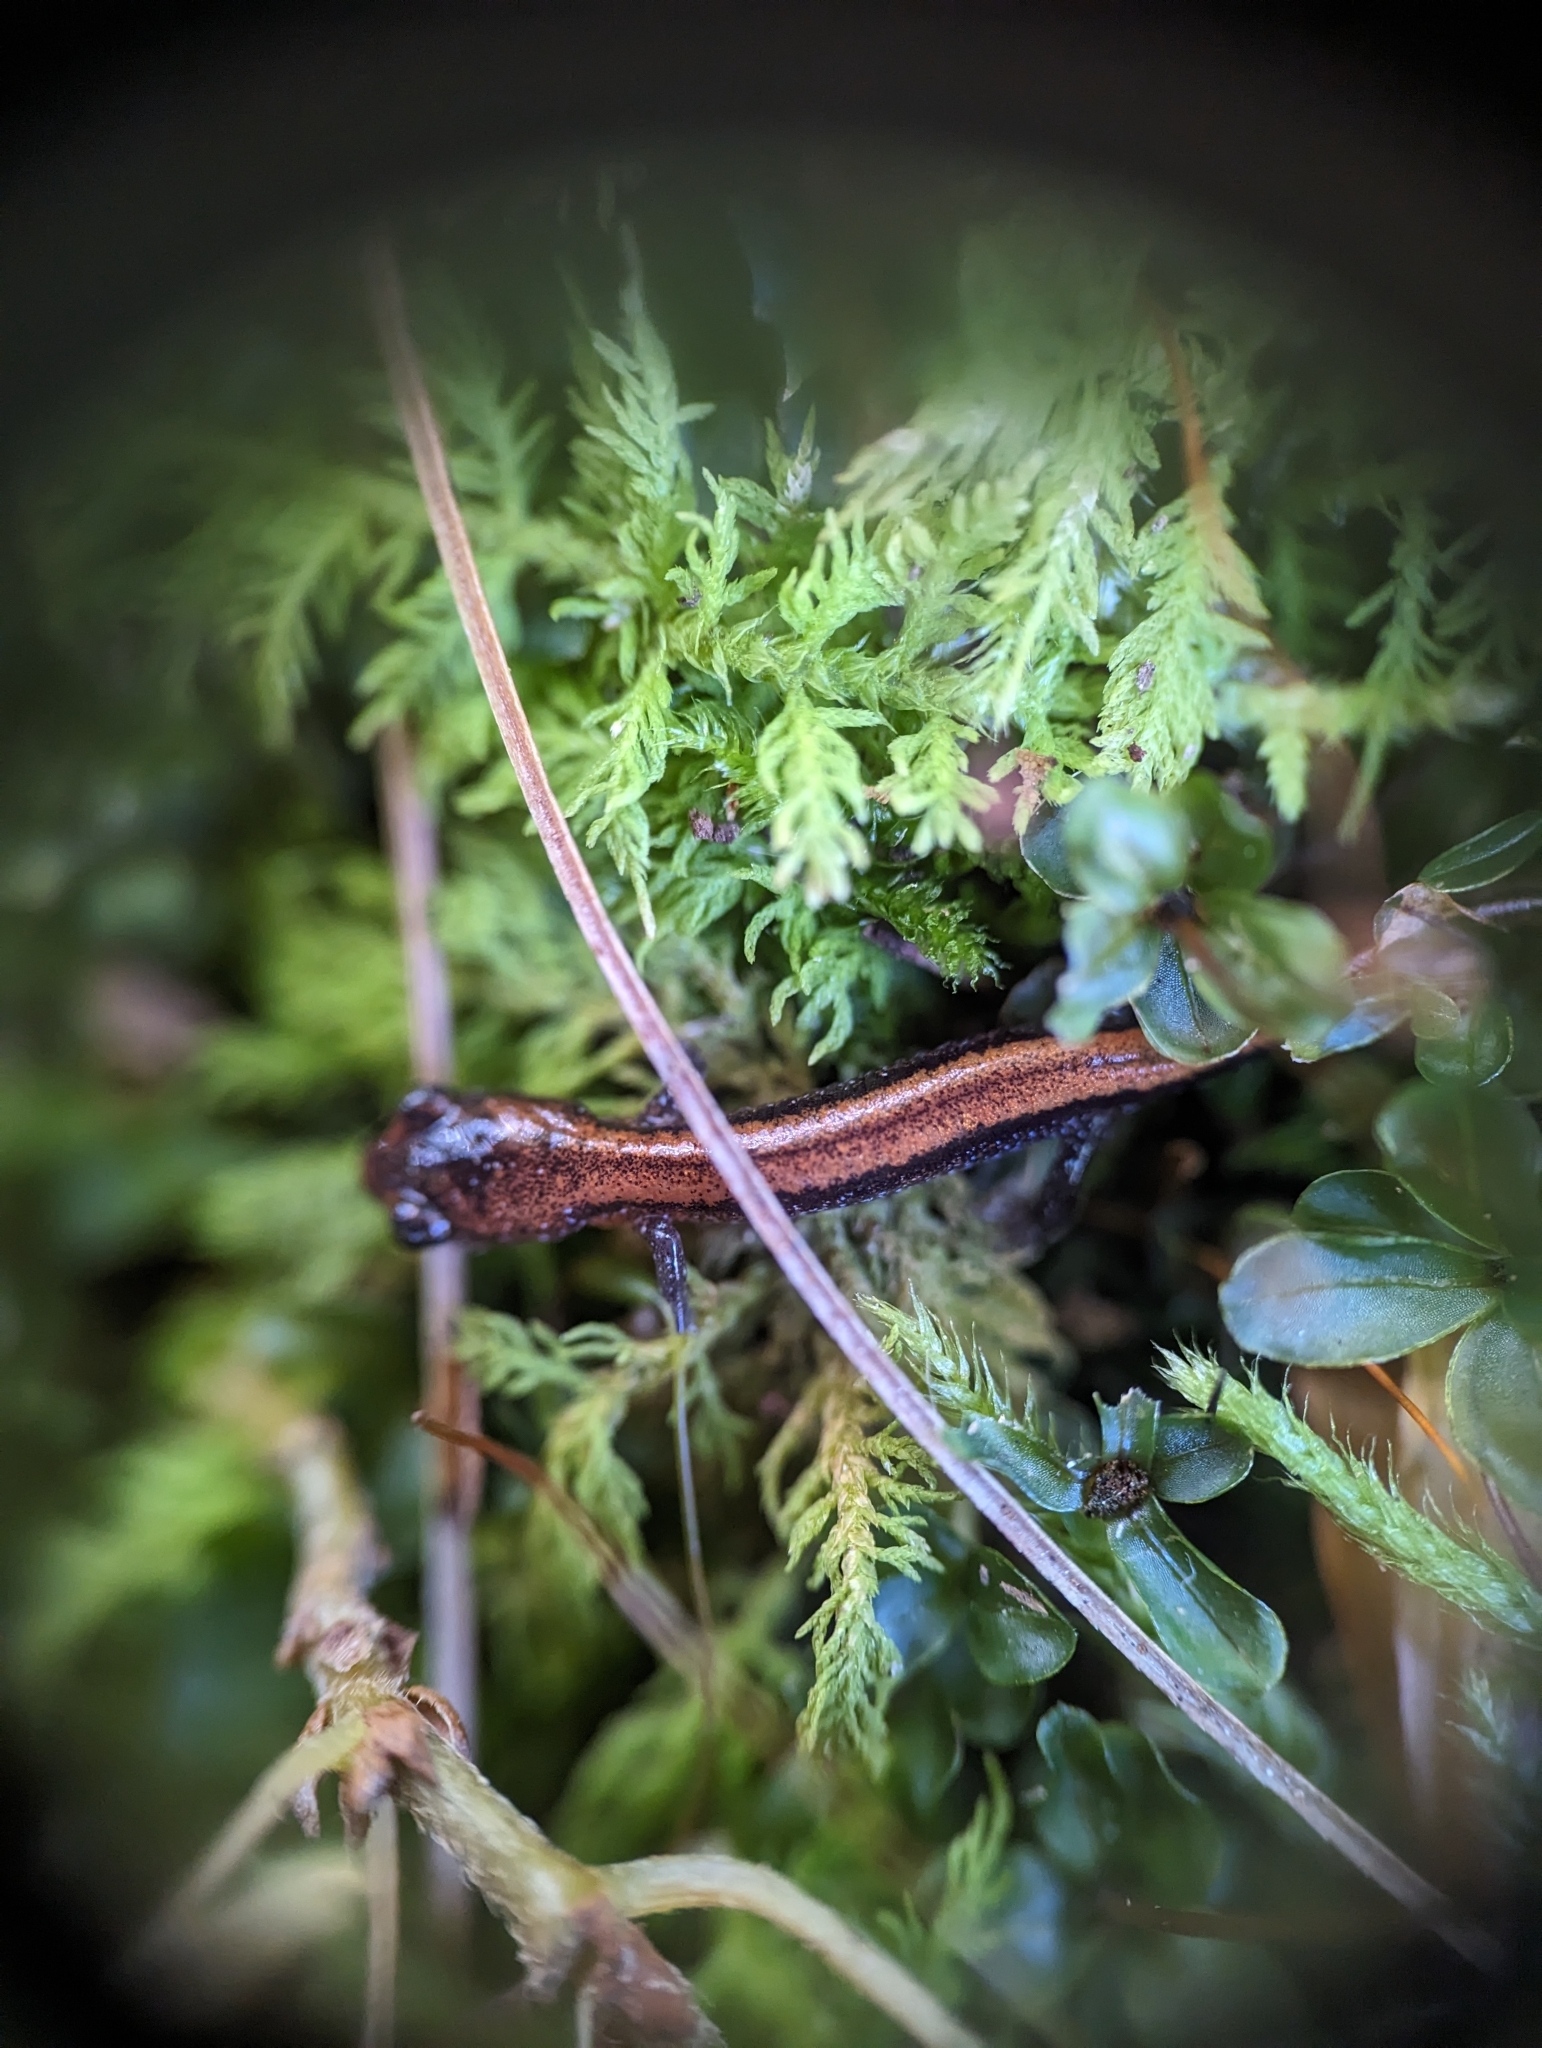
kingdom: Animalia
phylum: Chordata
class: Amphibia
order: Caudata
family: Plethodontidae
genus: Plethodon
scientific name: Plethodon cinereus
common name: Redback salamander
